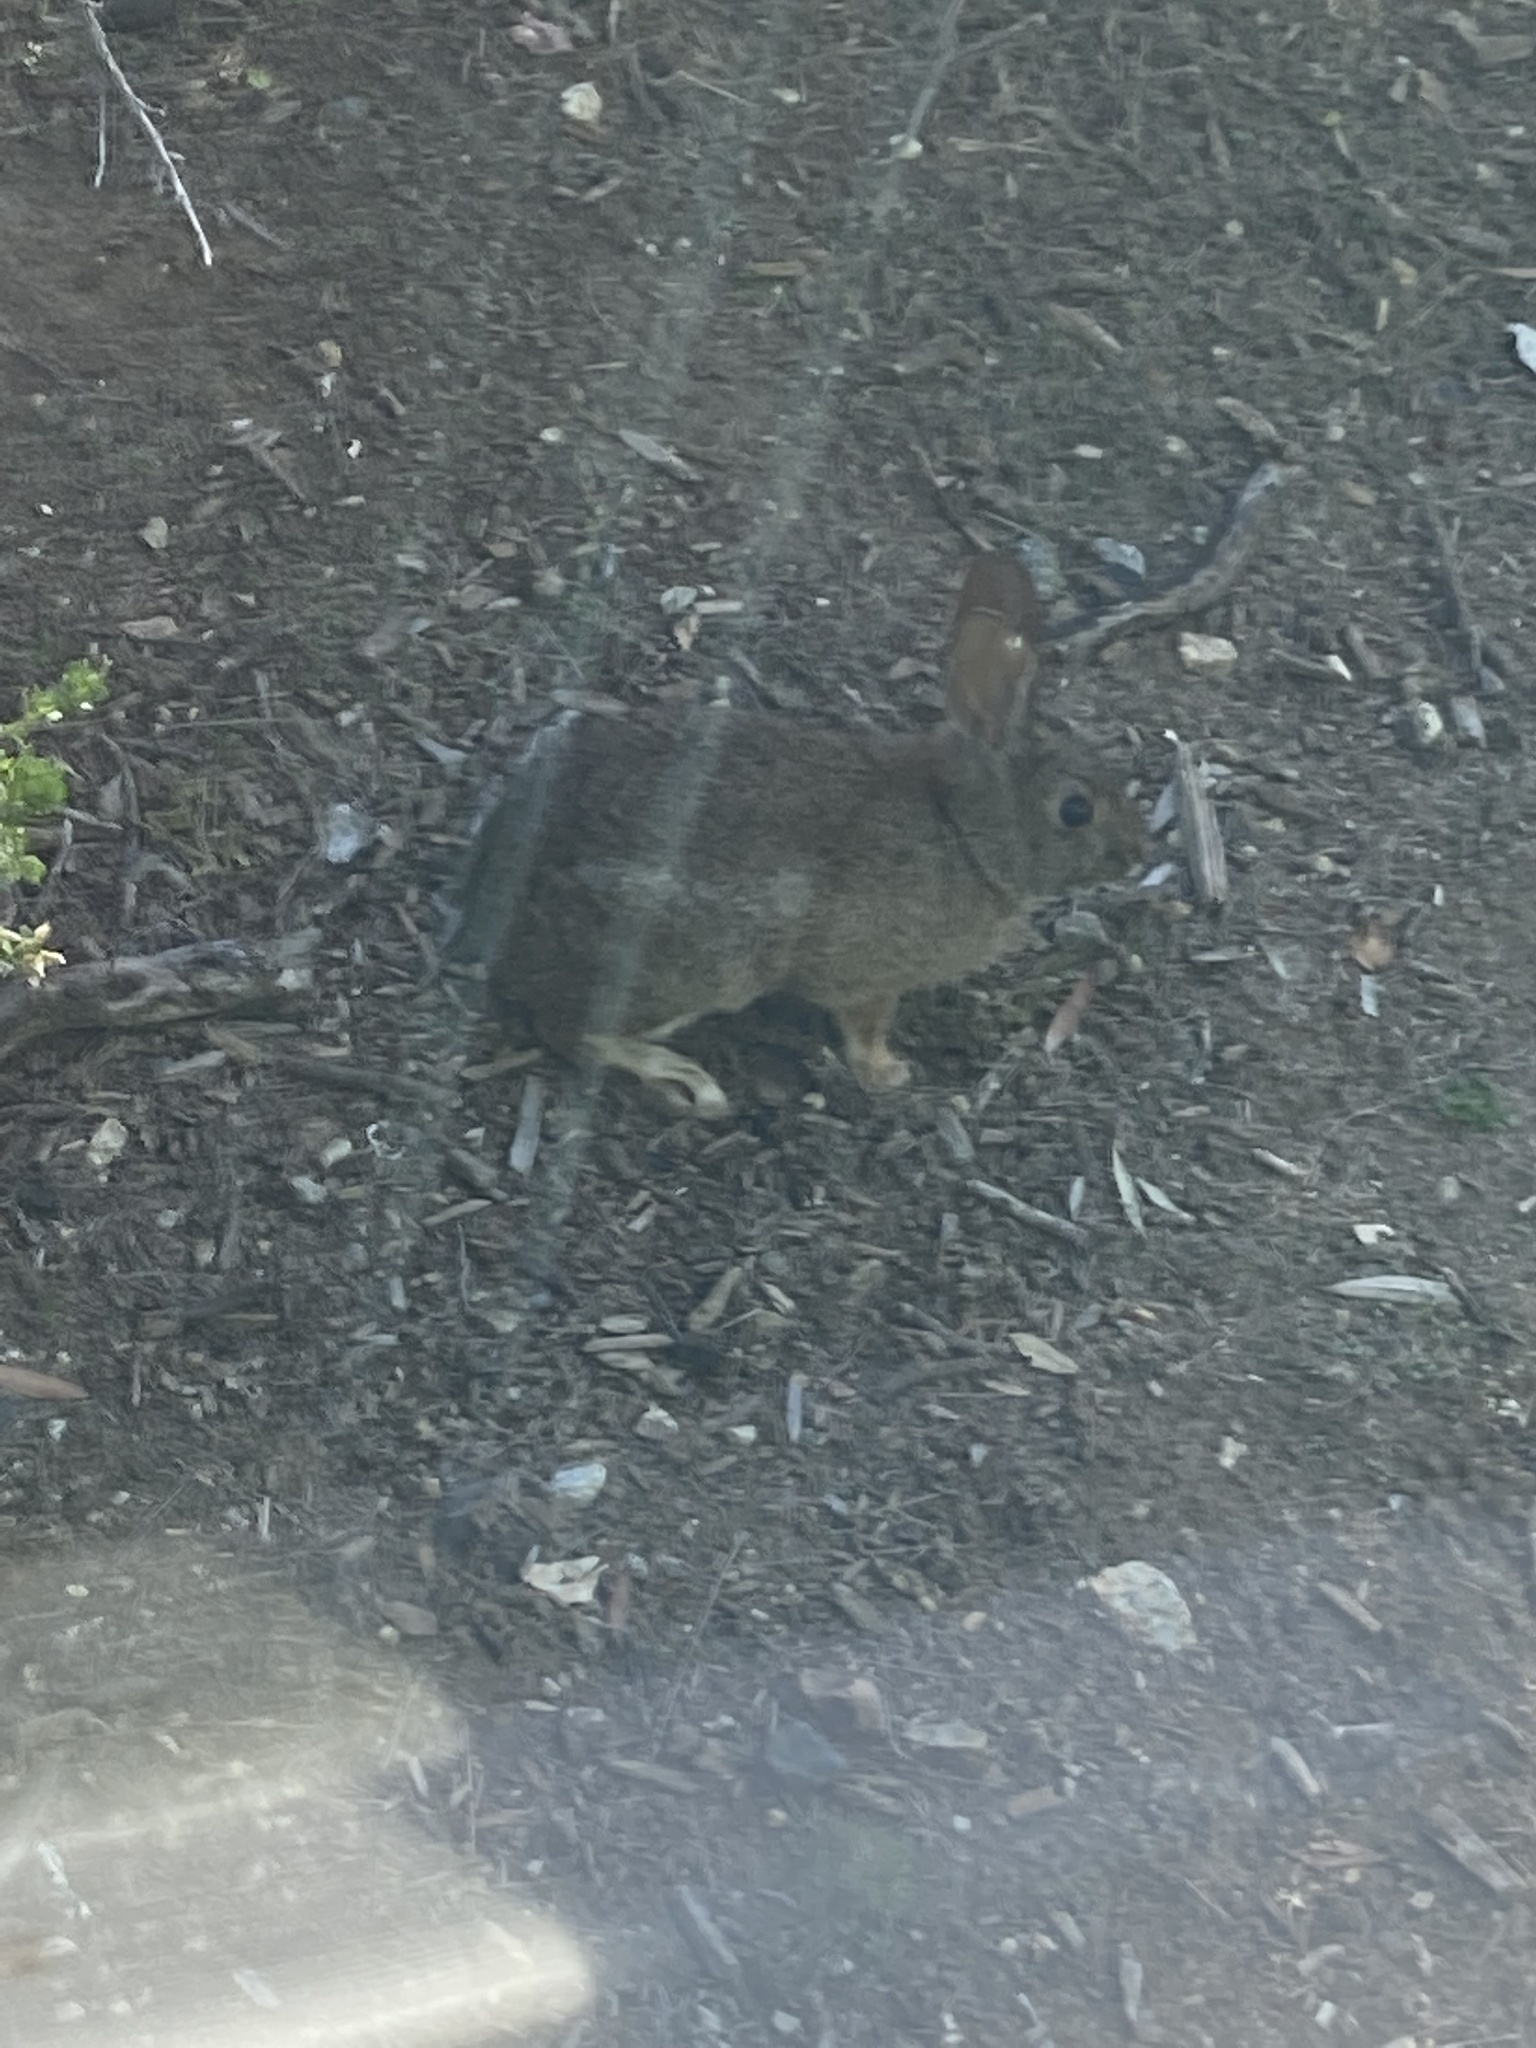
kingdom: Animalia
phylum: Chordata
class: Mammalia
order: Lagomorpha
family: Leporidae
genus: Sylvilagus
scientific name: Sylvilagus bachmani
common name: Brush rabbit
